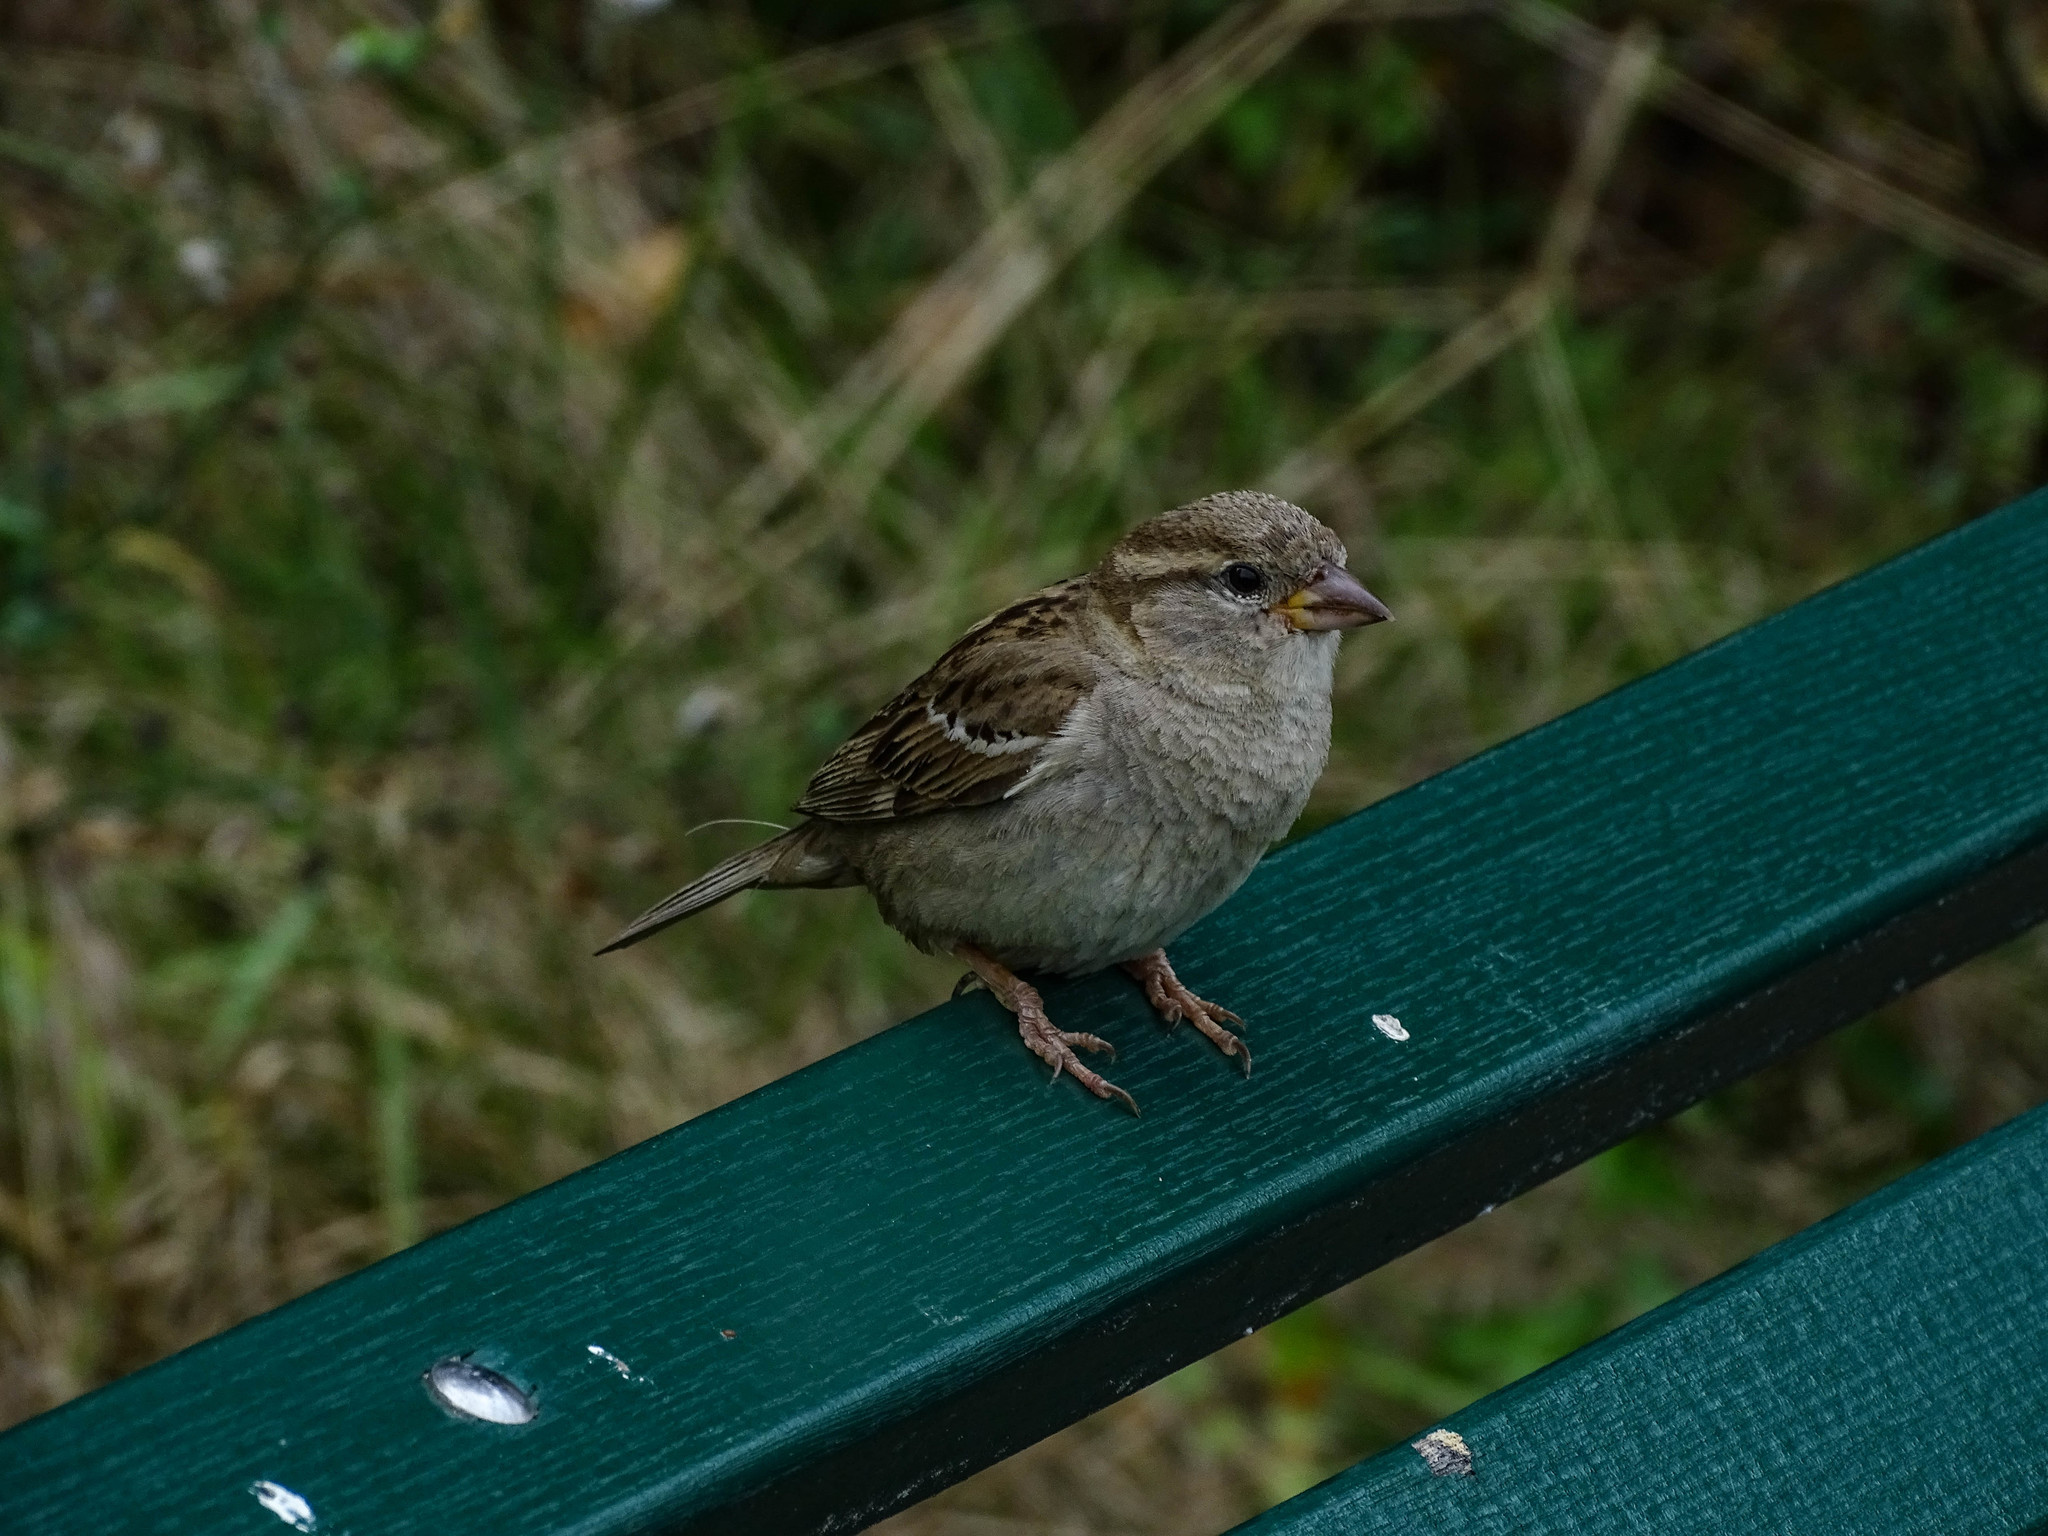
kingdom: Animalia
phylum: Chordata
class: Aves
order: Passeriformes
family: Passeridae
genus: Passer
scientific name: Passer domesticus
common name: House sparrow
